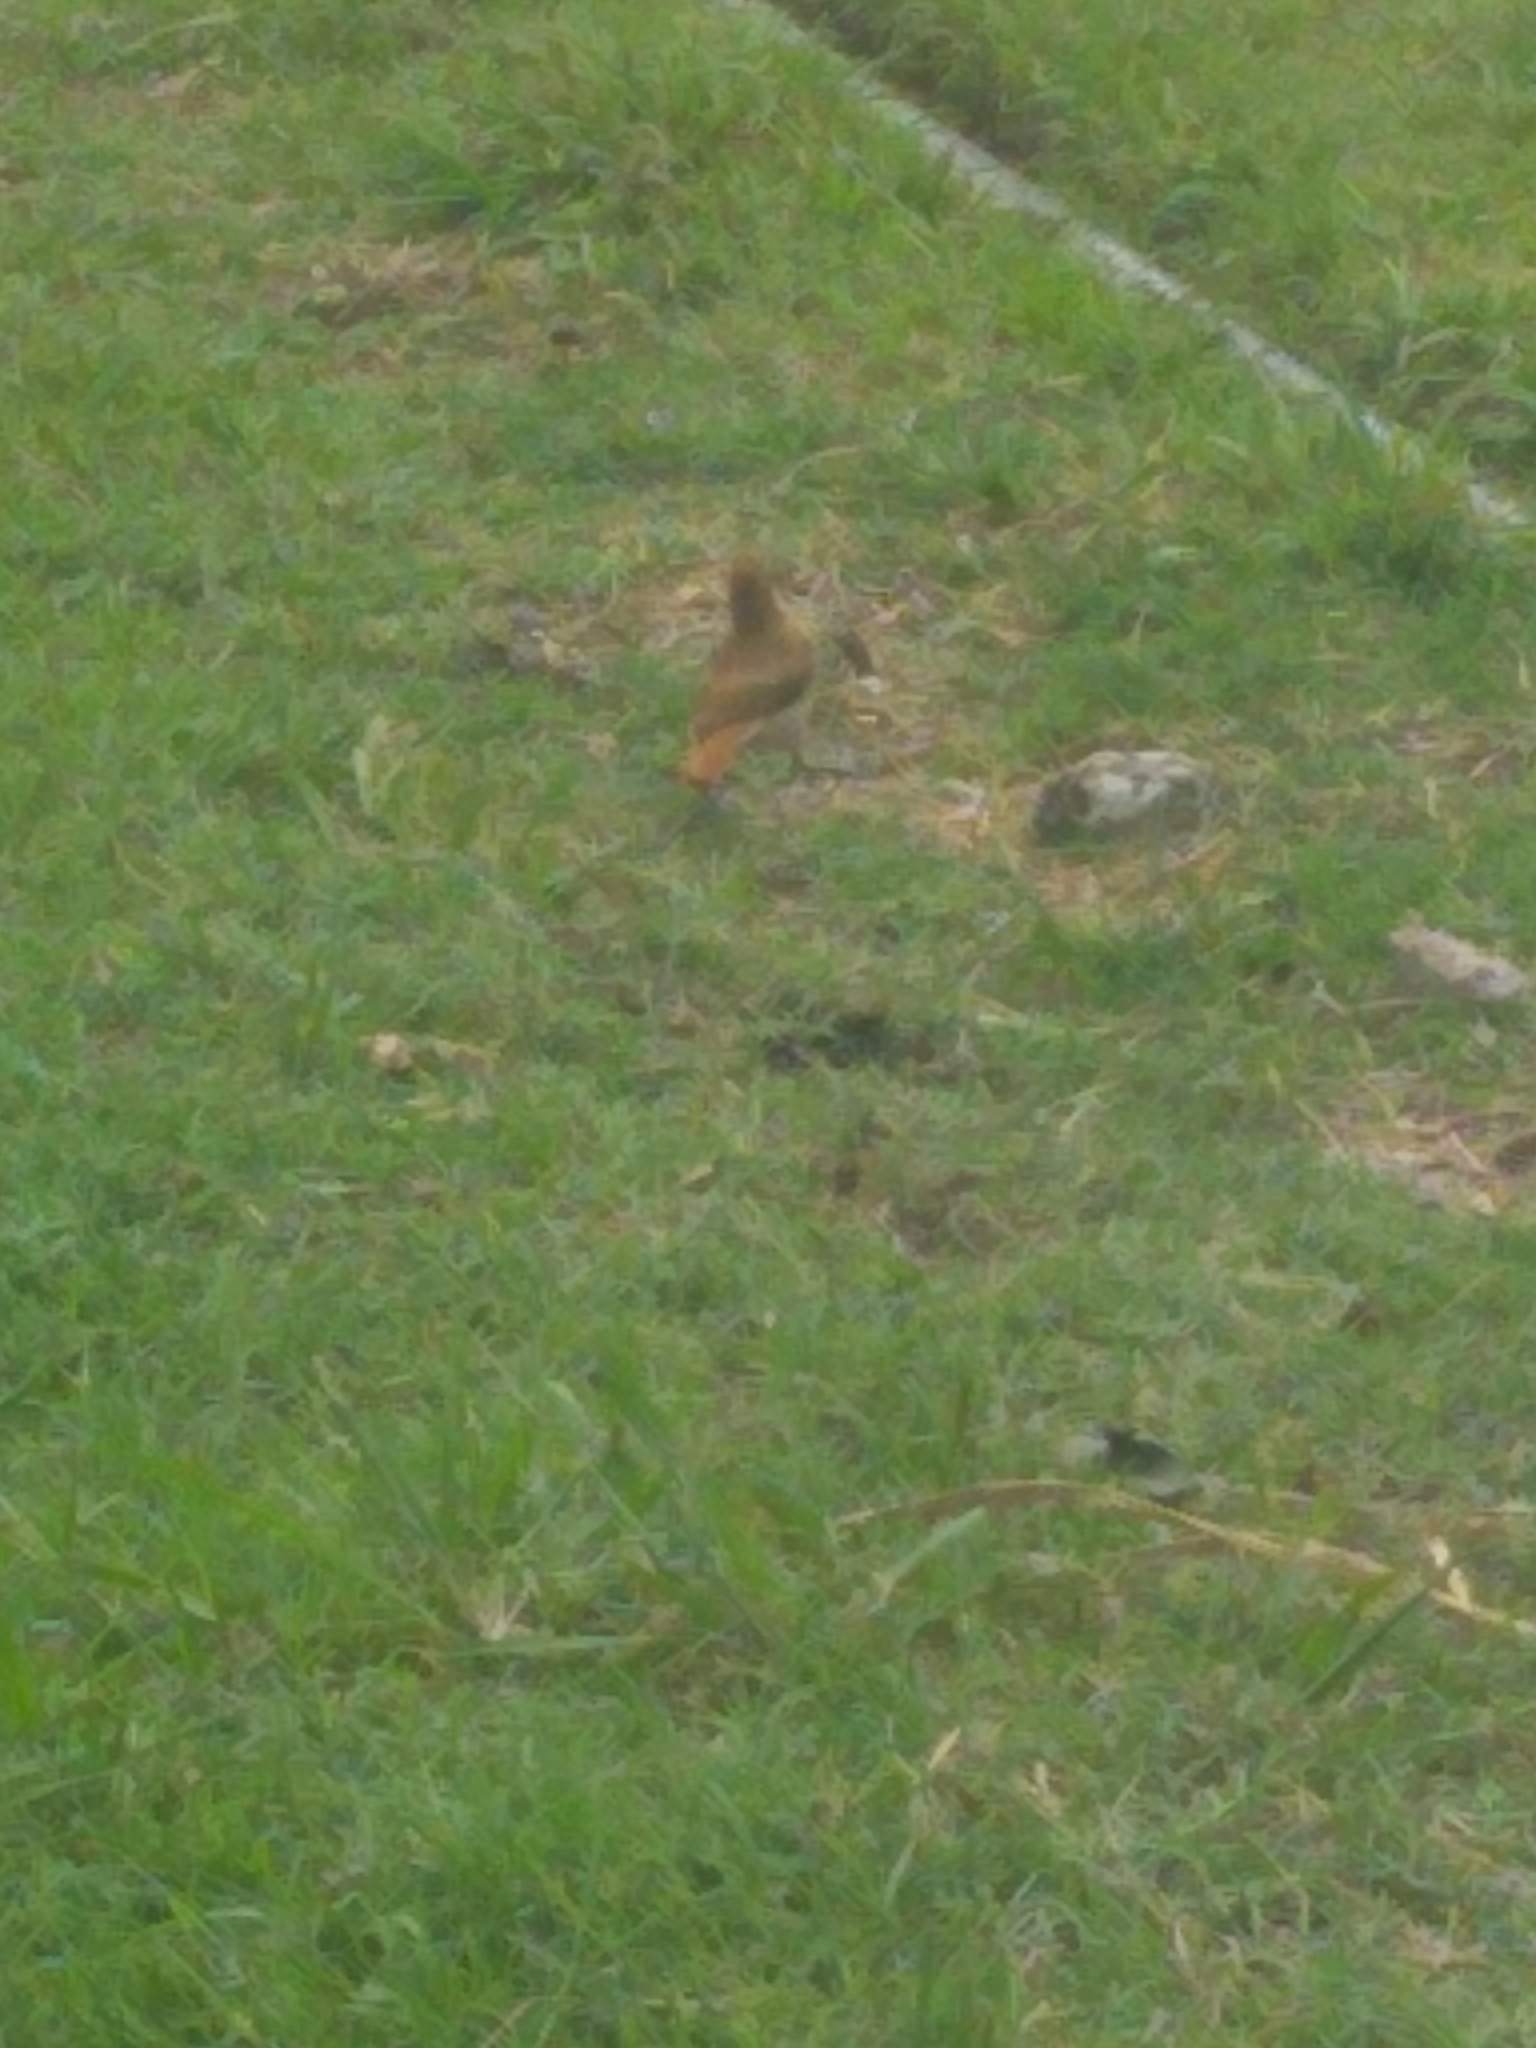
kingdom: Animalia
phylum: Chordata
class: Aves
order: Passeriformes
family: Furnariidae
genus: Furnarius
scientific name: Furnarius rufus
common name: Rufous hornero
